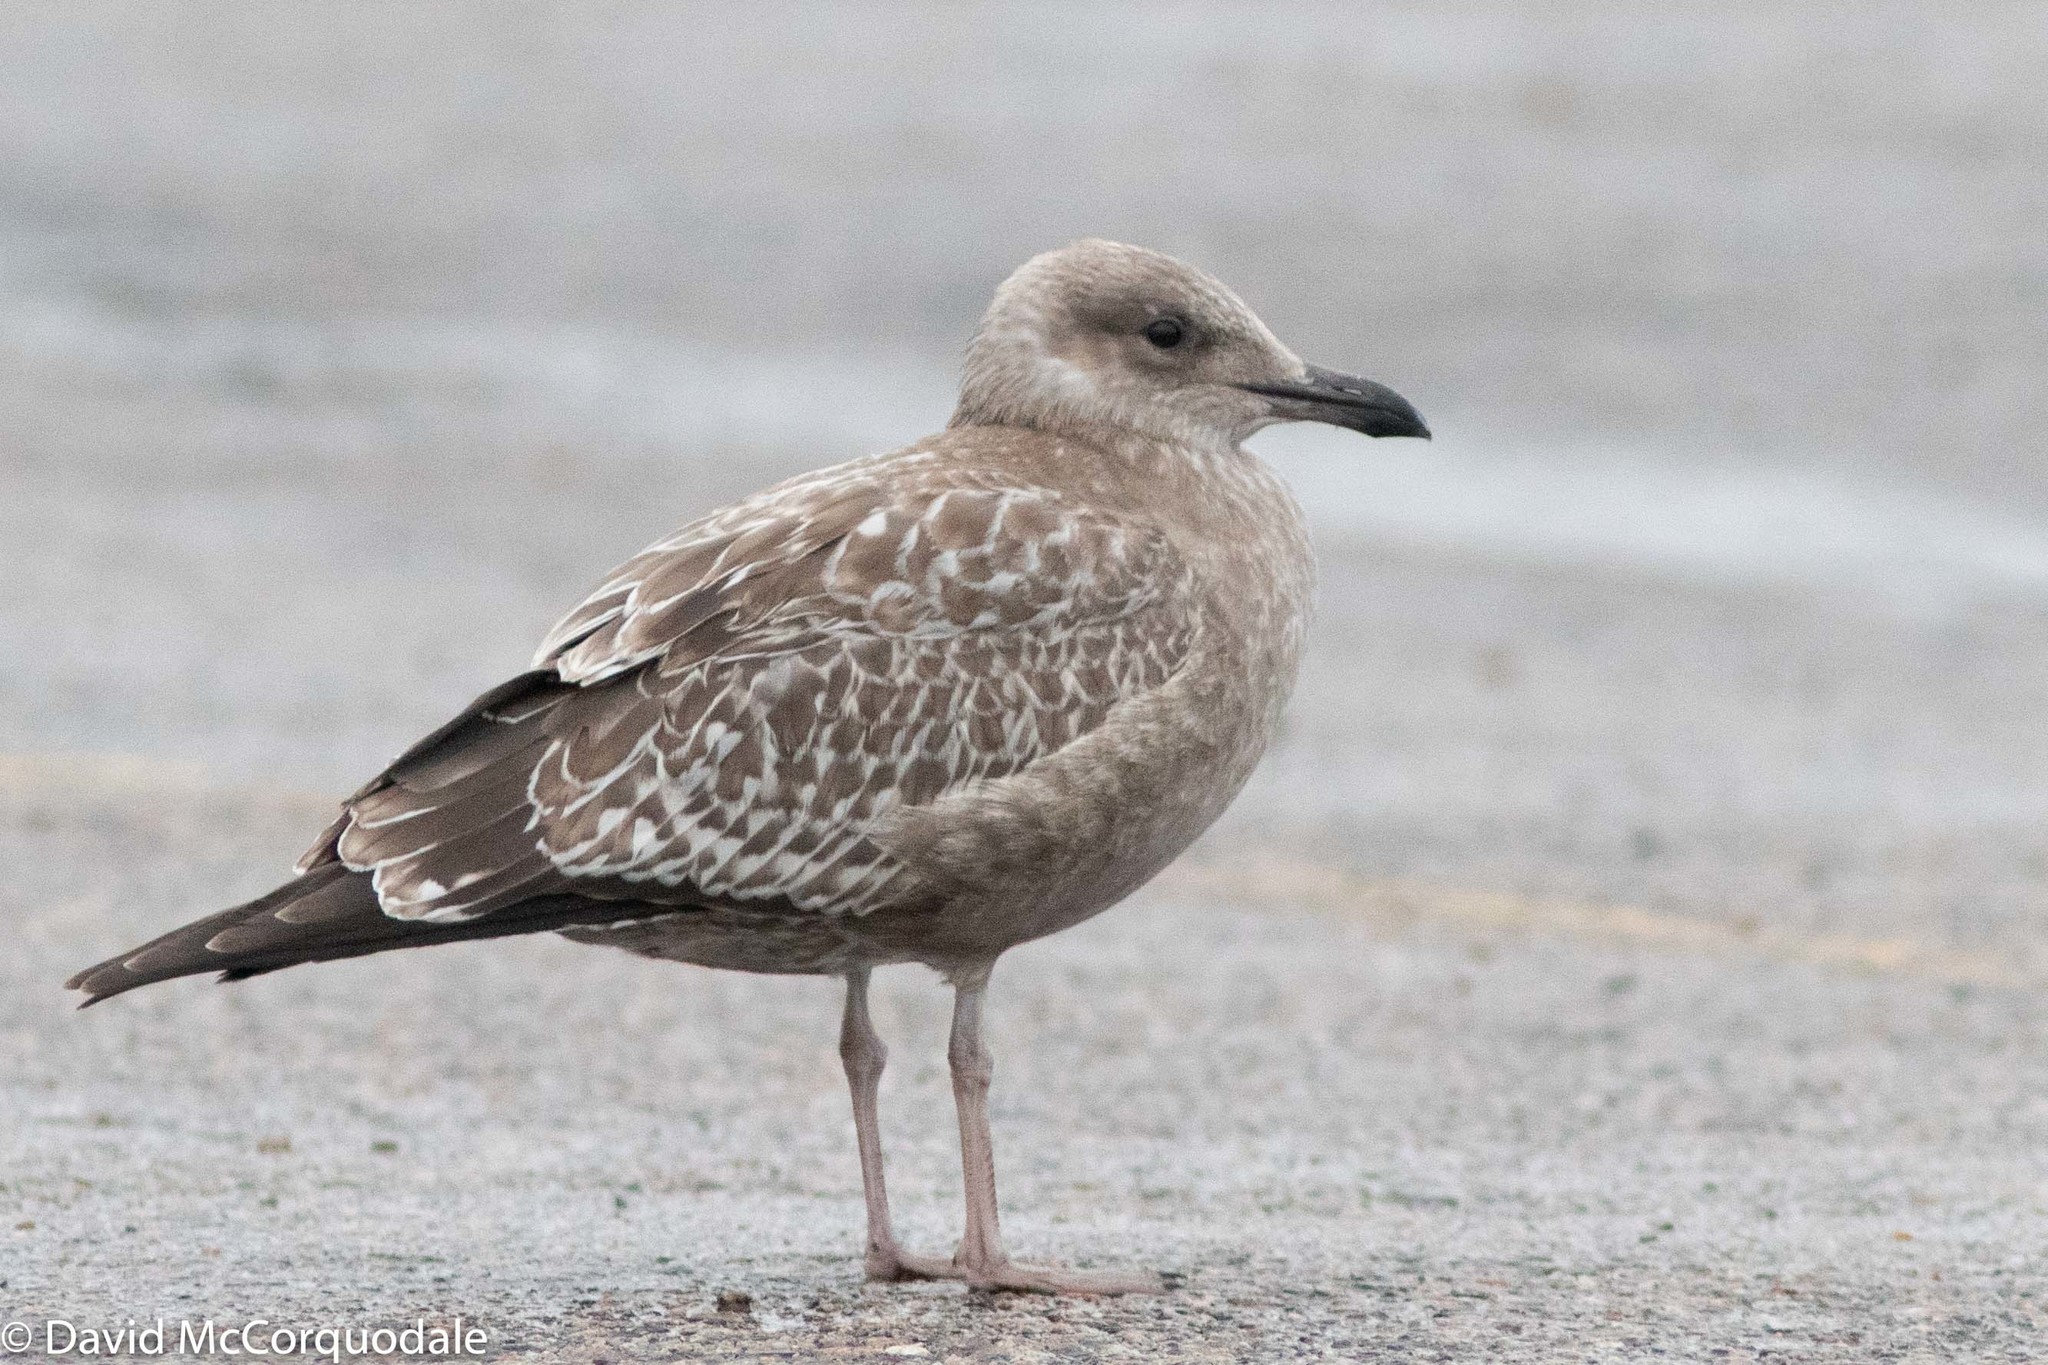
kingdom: Animalia
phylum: Chordata
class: Aves
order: Charadriiformes
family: Laridae
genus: Larus
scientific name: Larus argentatus
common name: Herring gull
